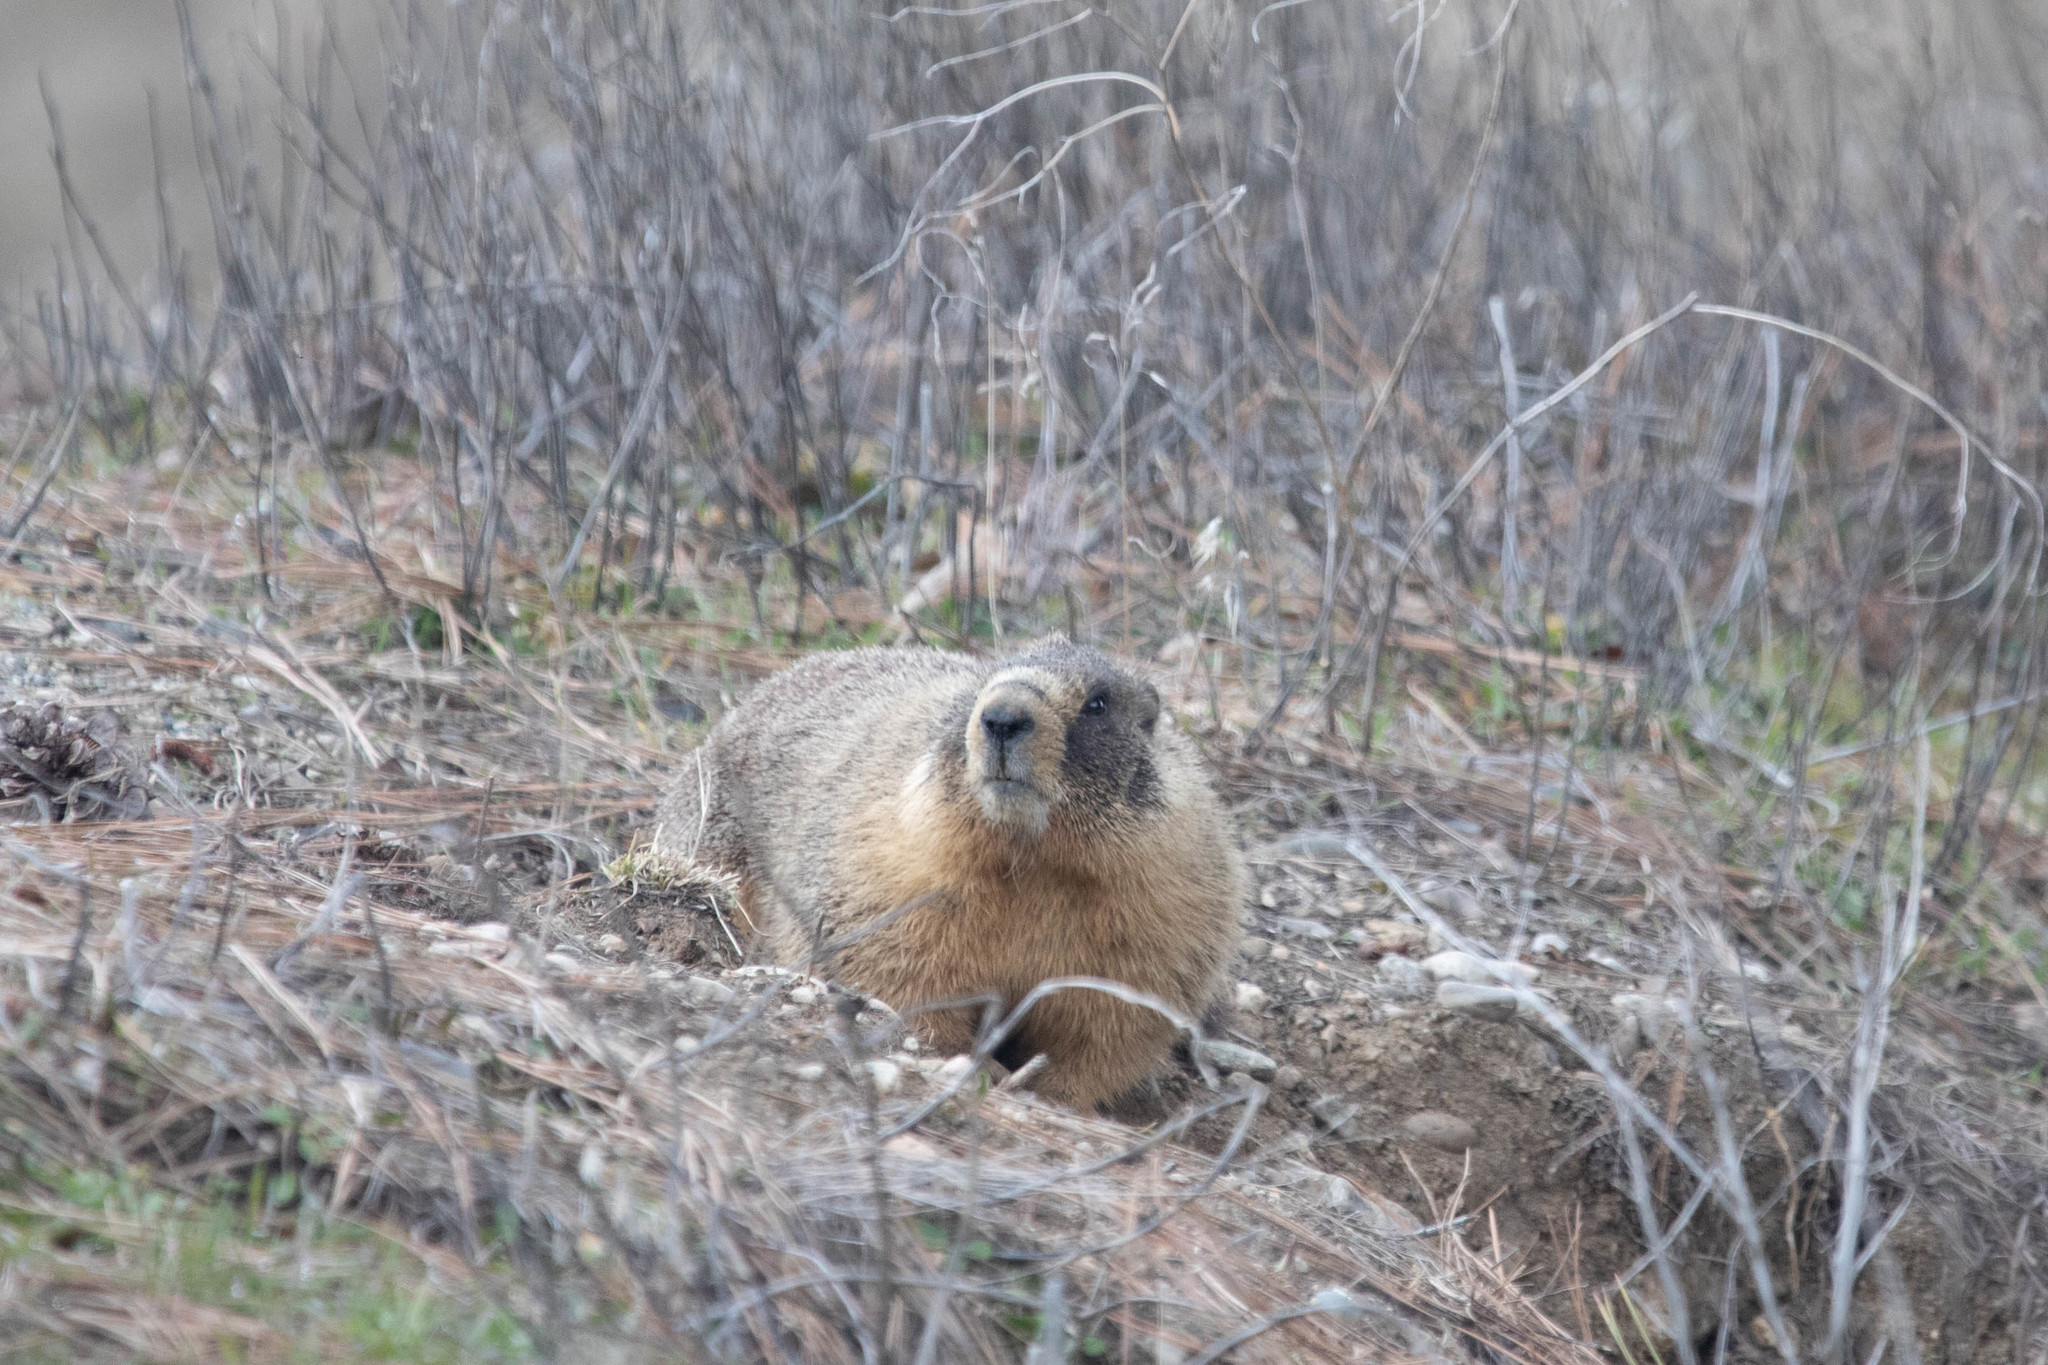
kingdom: Animalia
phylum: Chordata
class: Mammalia
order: Rodentia
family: Sciuridae
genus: Marmota
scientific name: Marmota flaviventris
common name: Yellow-bellied marmot
